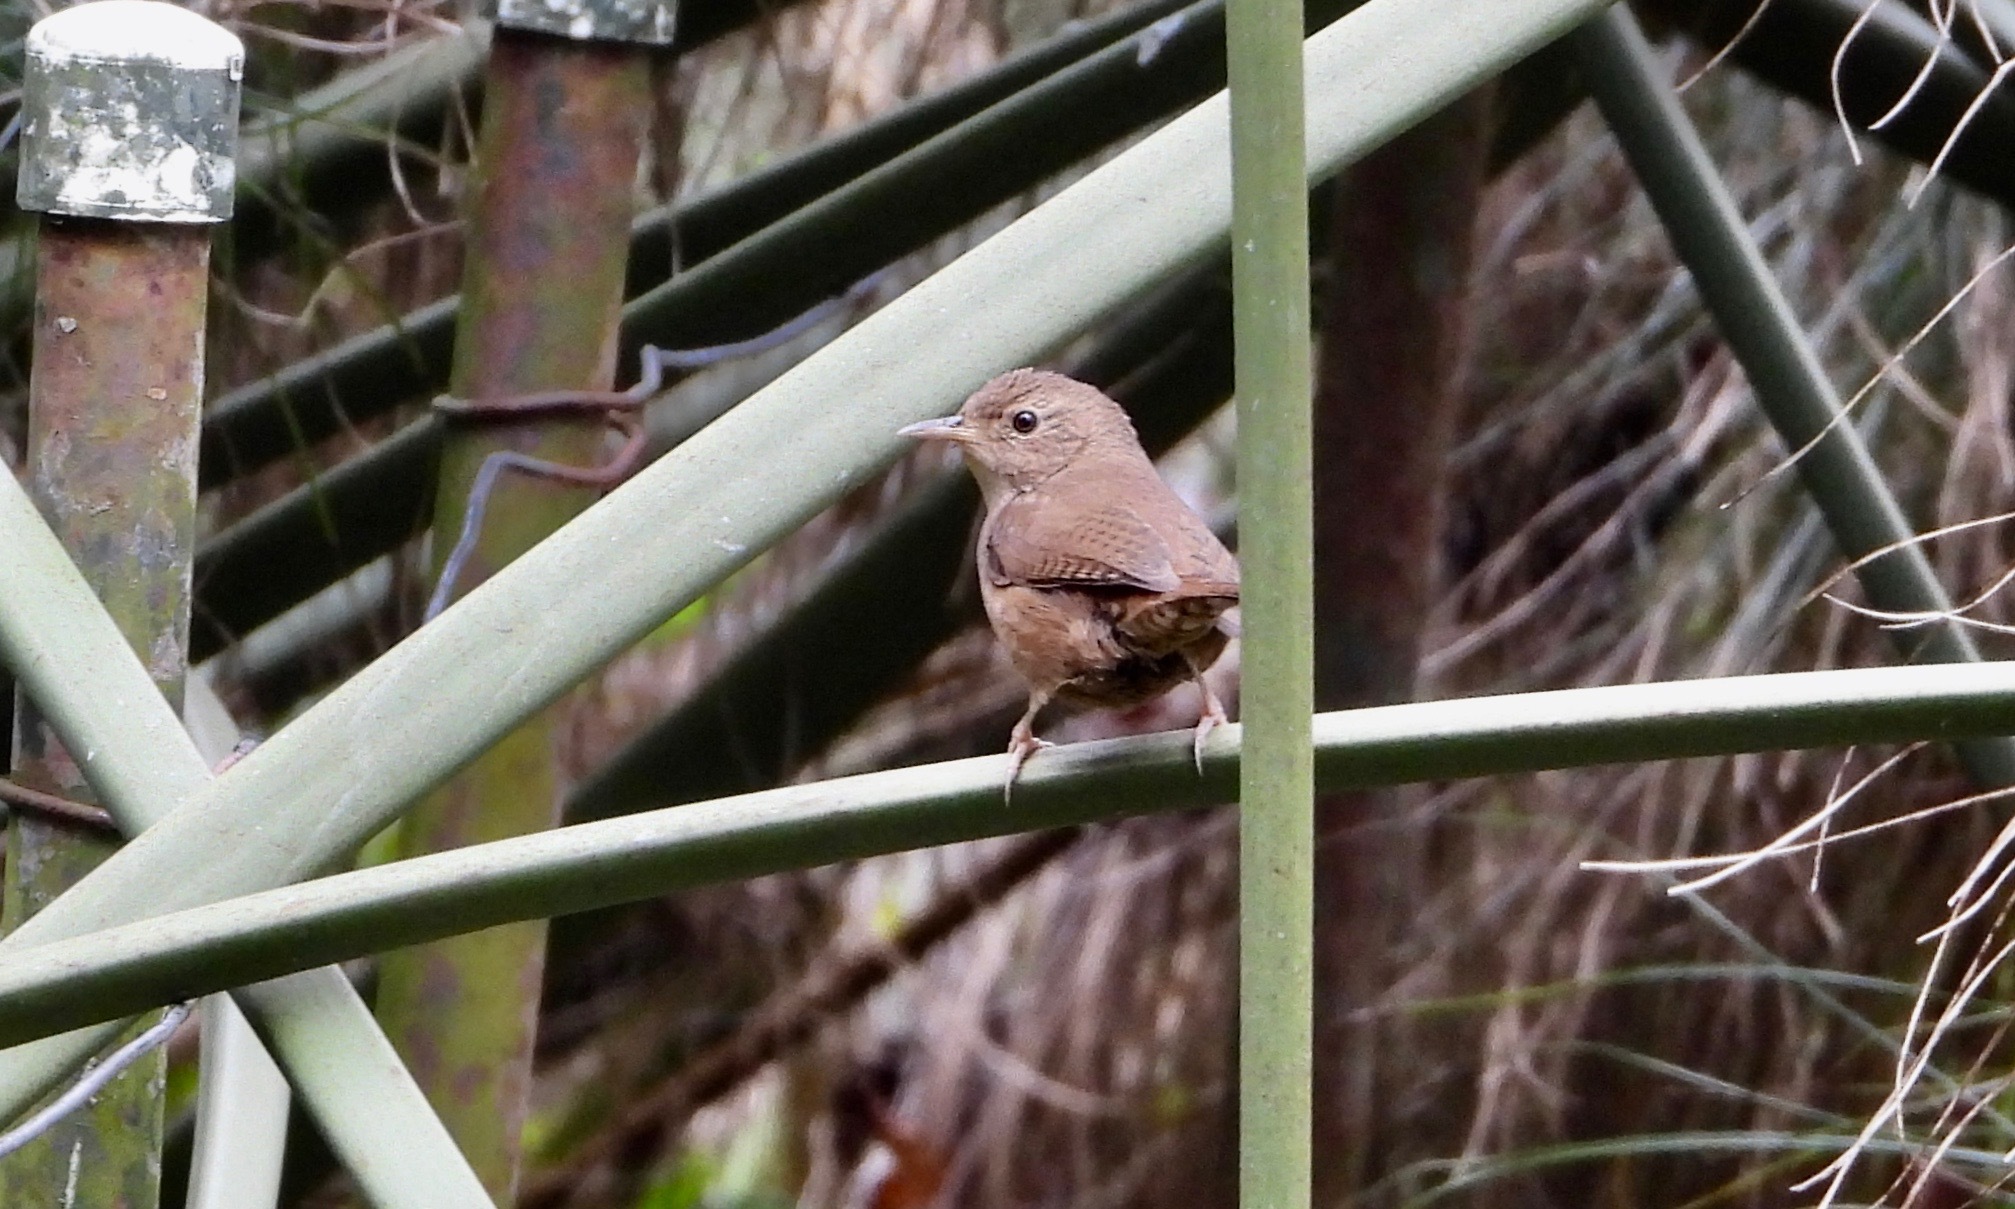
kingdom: Animalia
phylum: Chordata
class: Aves
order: Passeriformes
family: Troglodytidae
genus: Troglodytes
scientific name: Troglodytes aedon
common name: House wren
